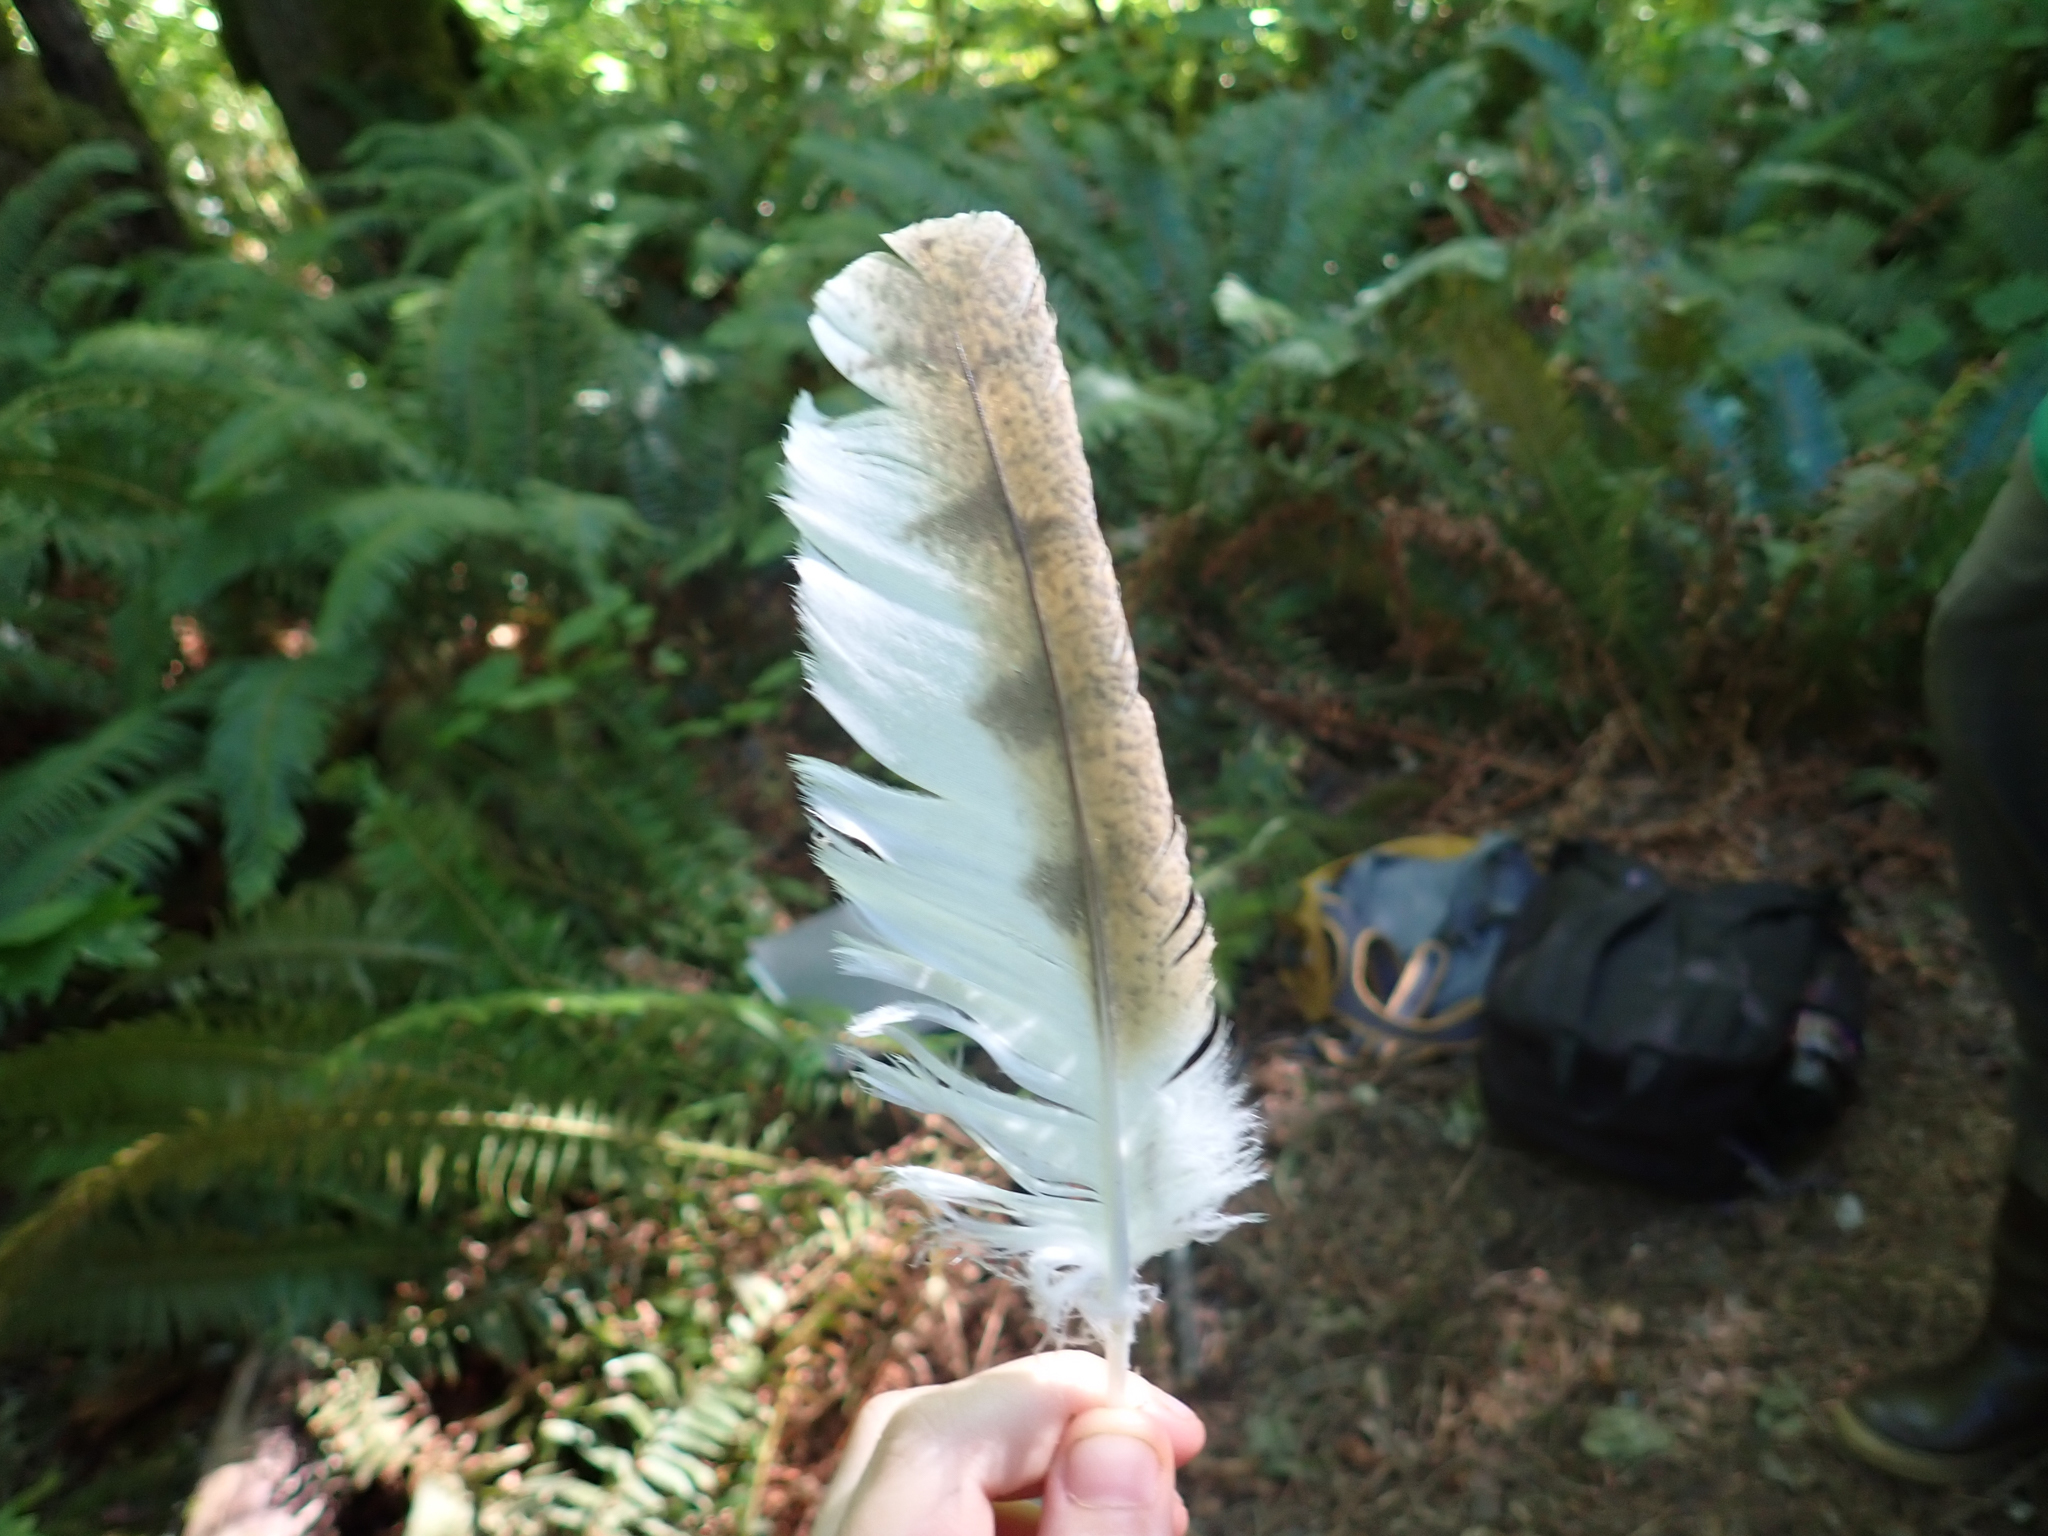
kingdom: Animalia
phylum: Chordata
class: Aves
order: Strigiformes
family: Tytonidae
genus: Tyto
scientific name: Tyto alba
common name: Barn owl
